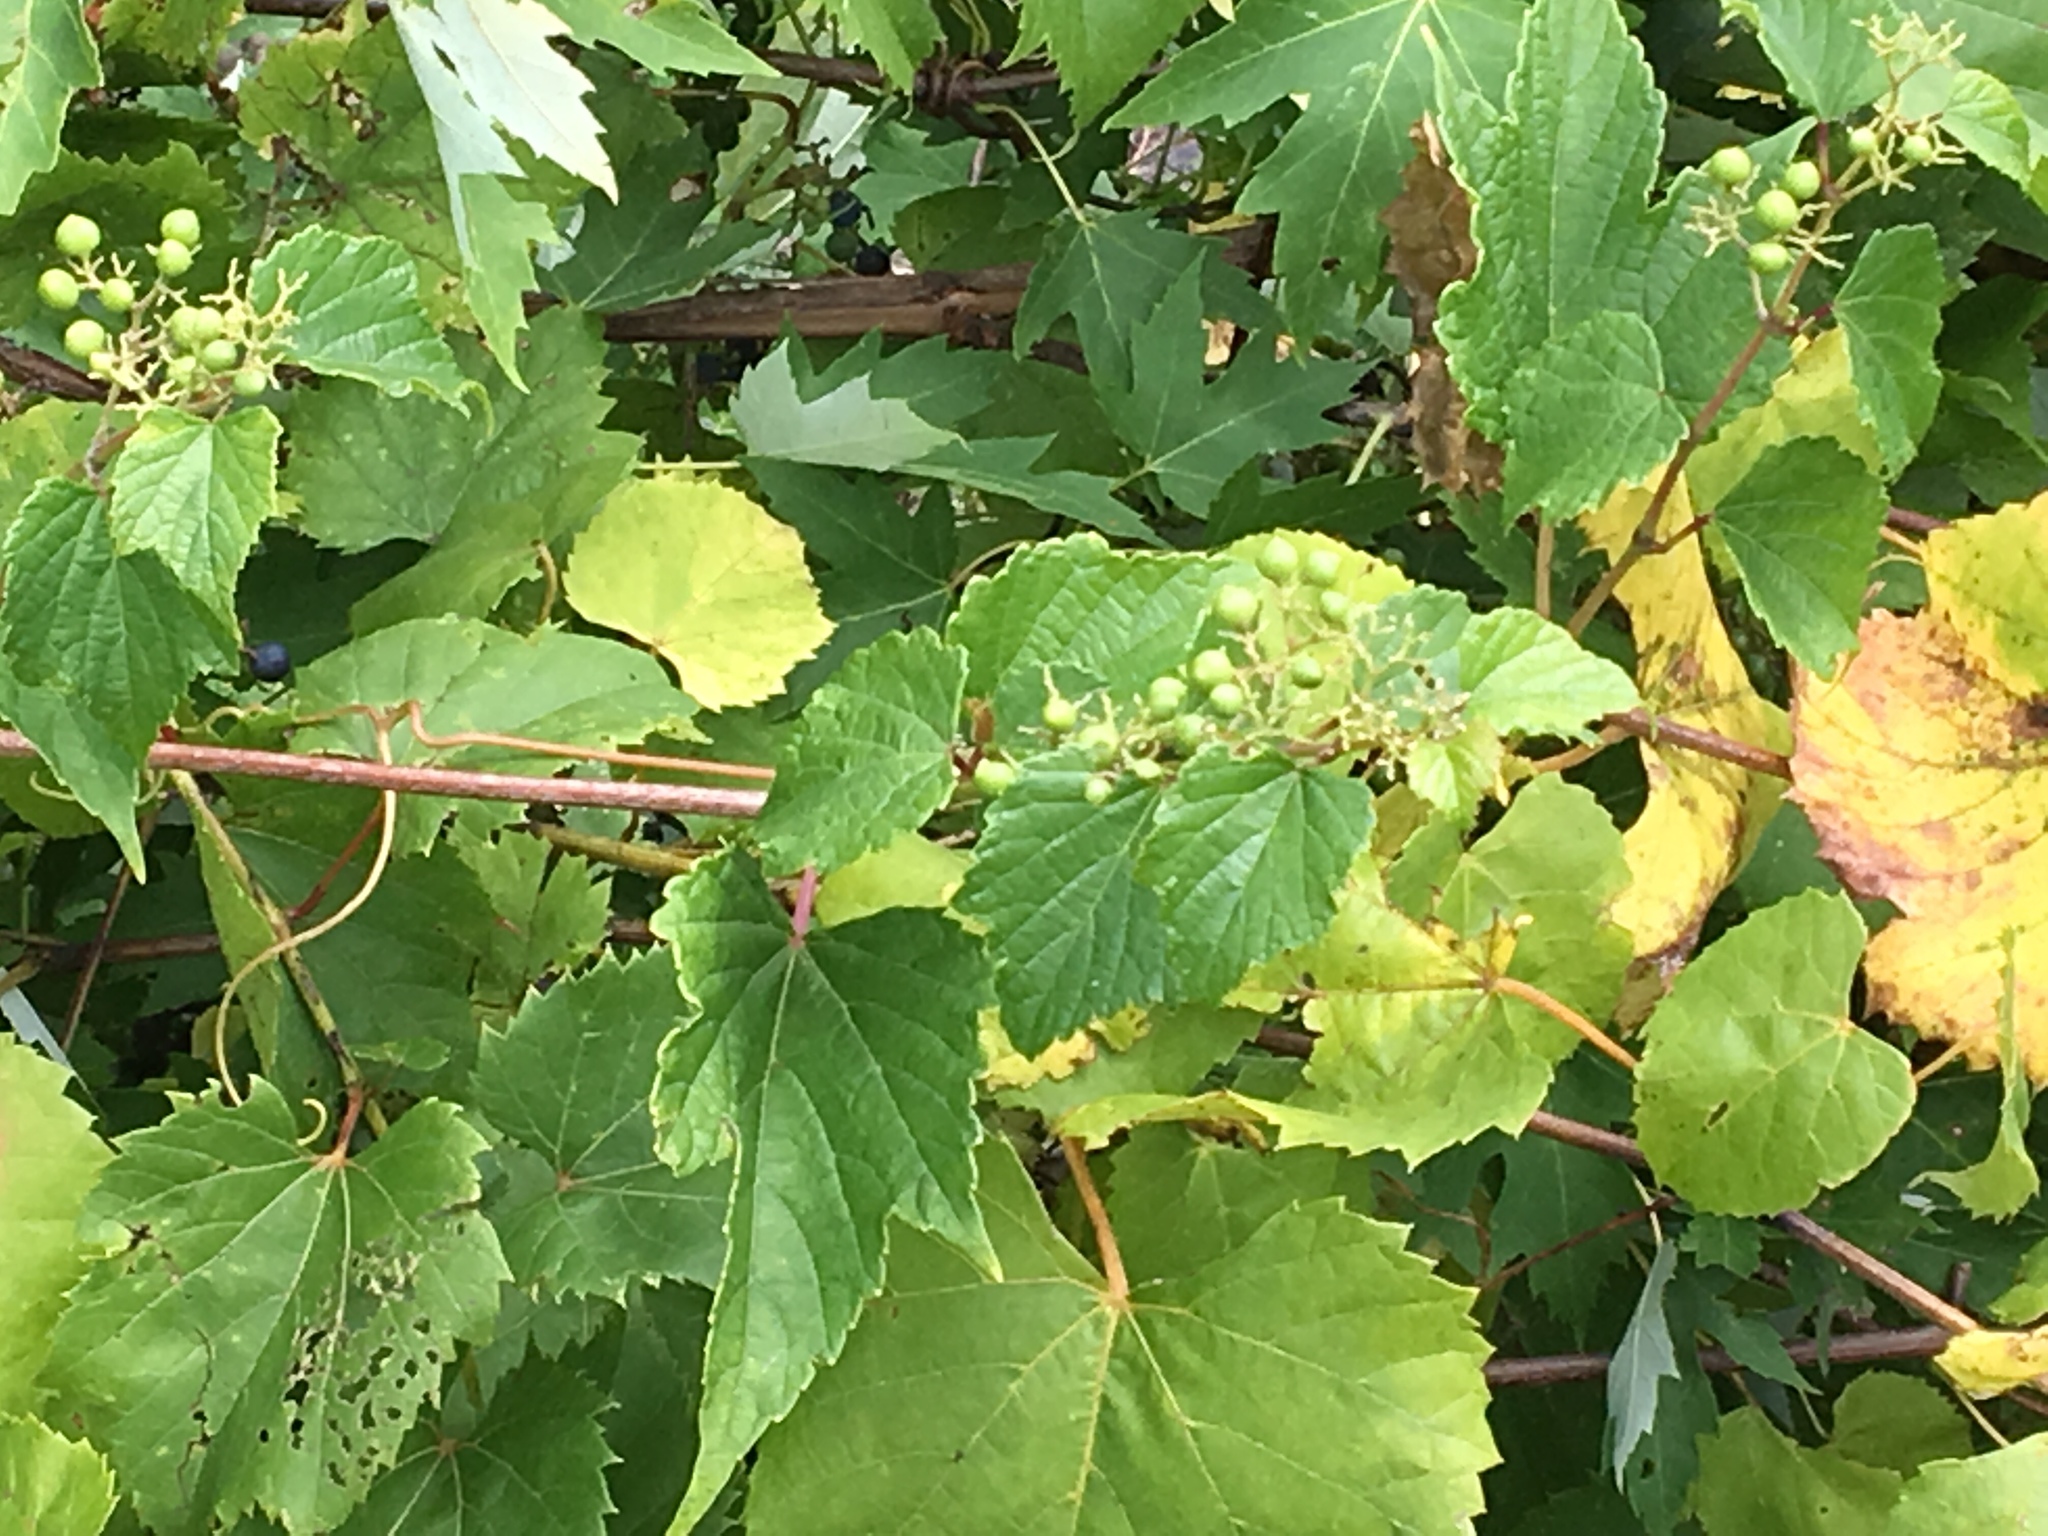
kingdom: Plantae
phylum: Tracheophyta
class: Magnoliopsida
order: Vitales
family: Vitaceae
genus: Ampelopsis
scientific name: Ampelopsis glandulosa
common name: Amur peppervine
